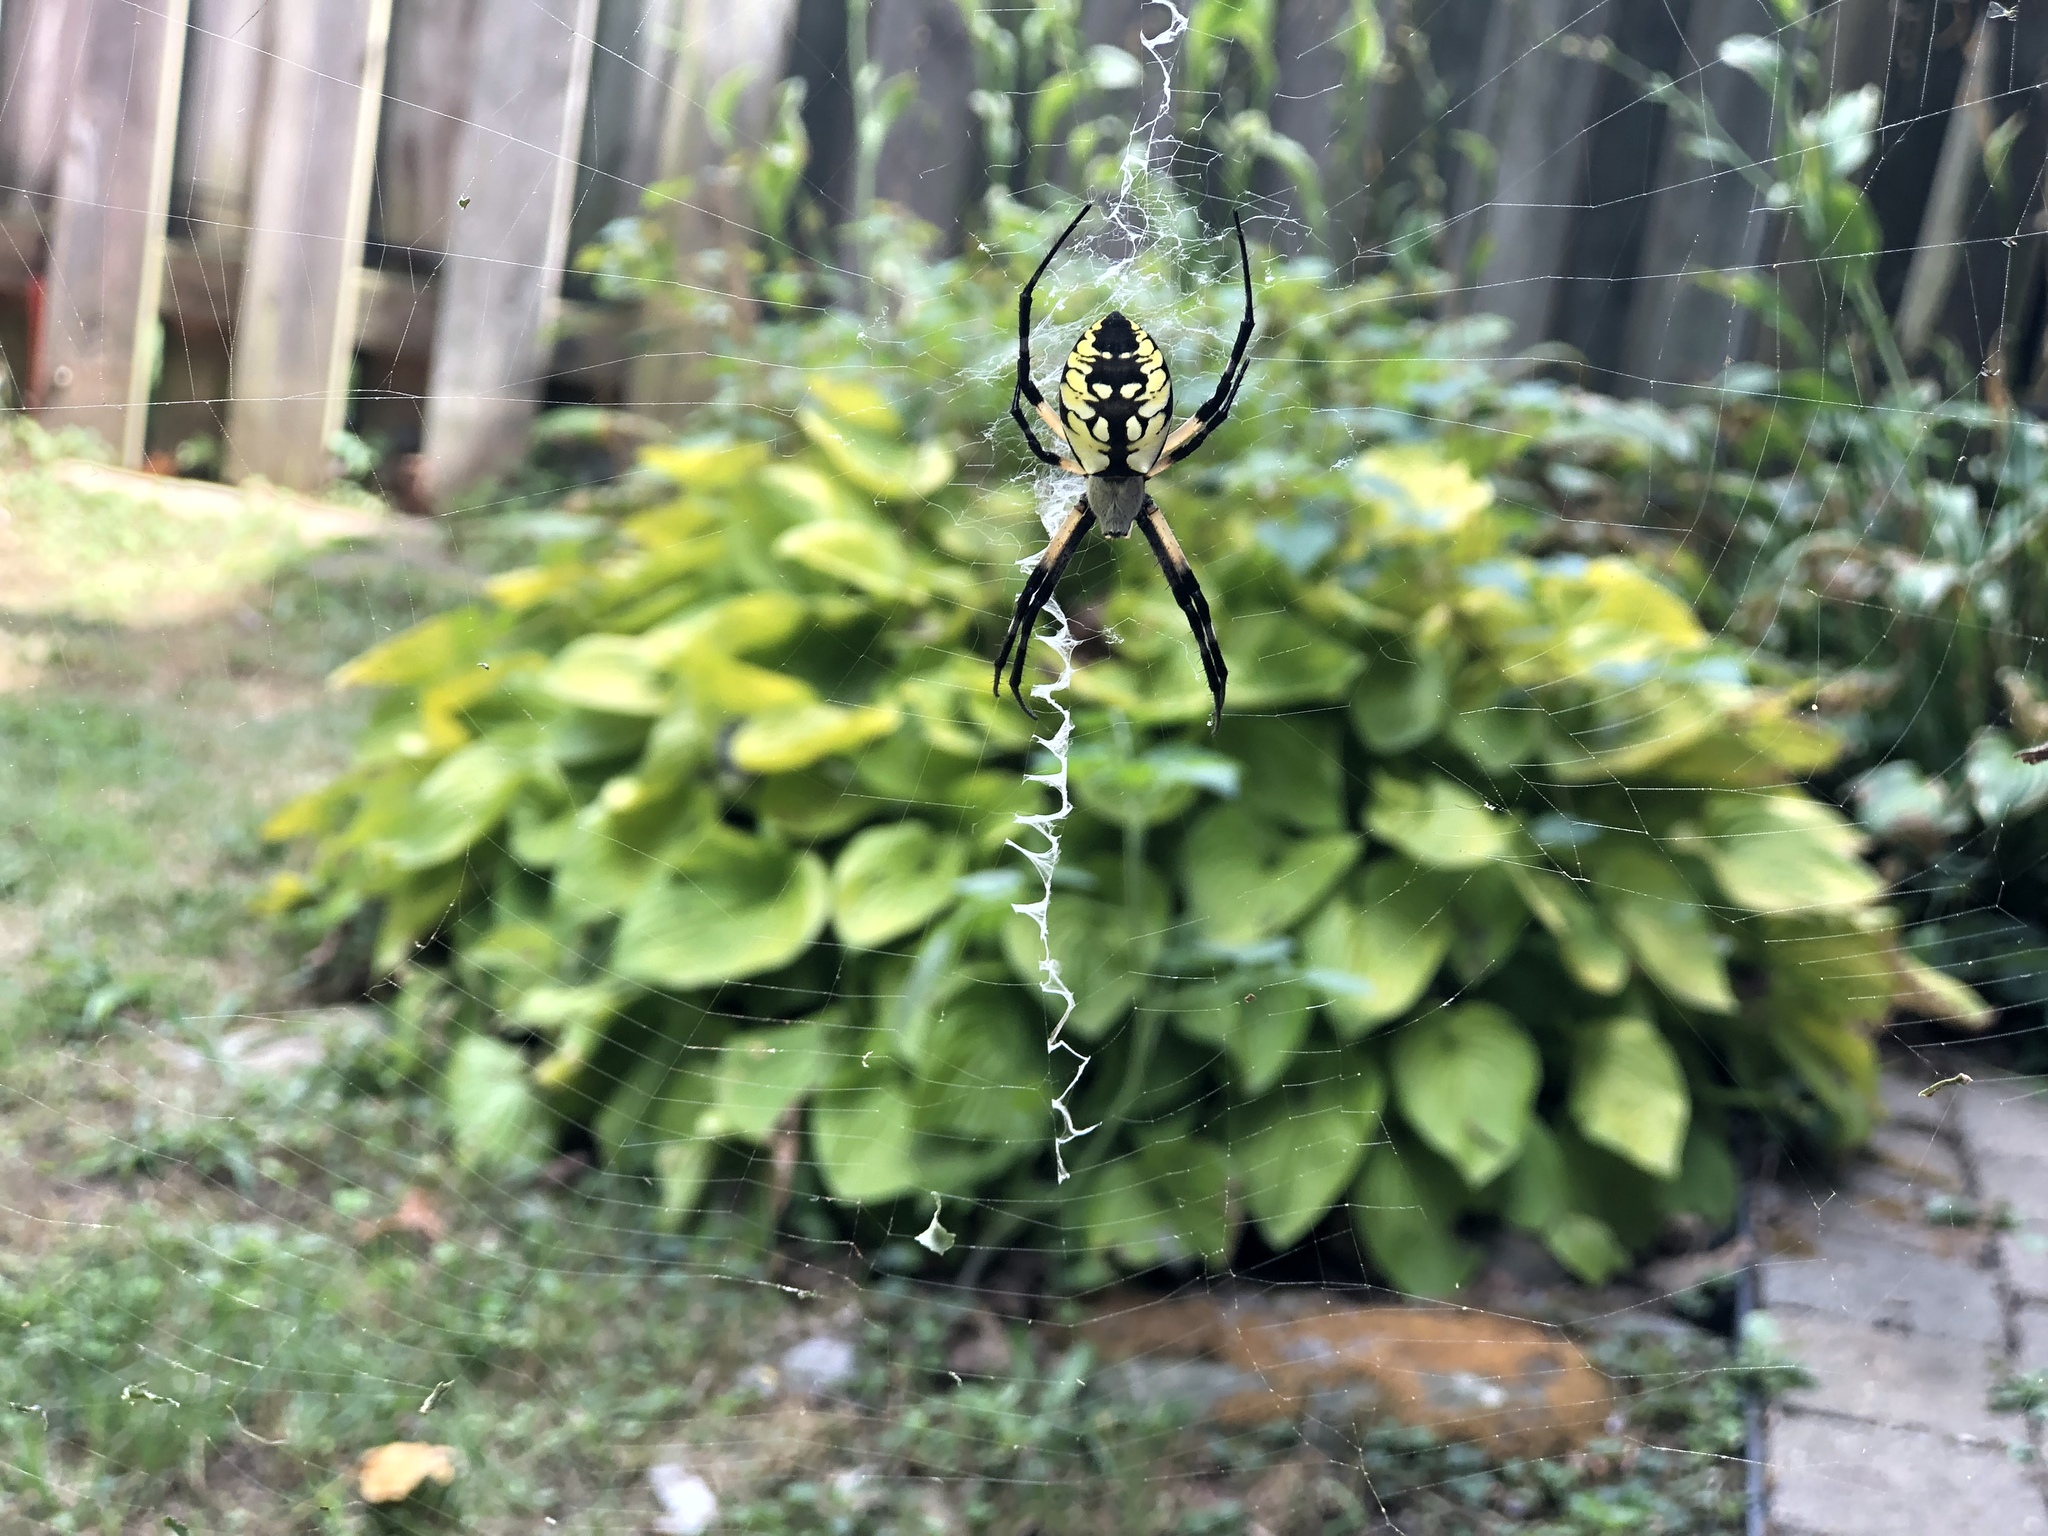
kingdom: Animalia
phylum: Arthropoda
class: Arachnida
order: Araneae
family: Araneidae
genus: Argiope
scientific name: Argiope aurantia
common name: Orb weavers
